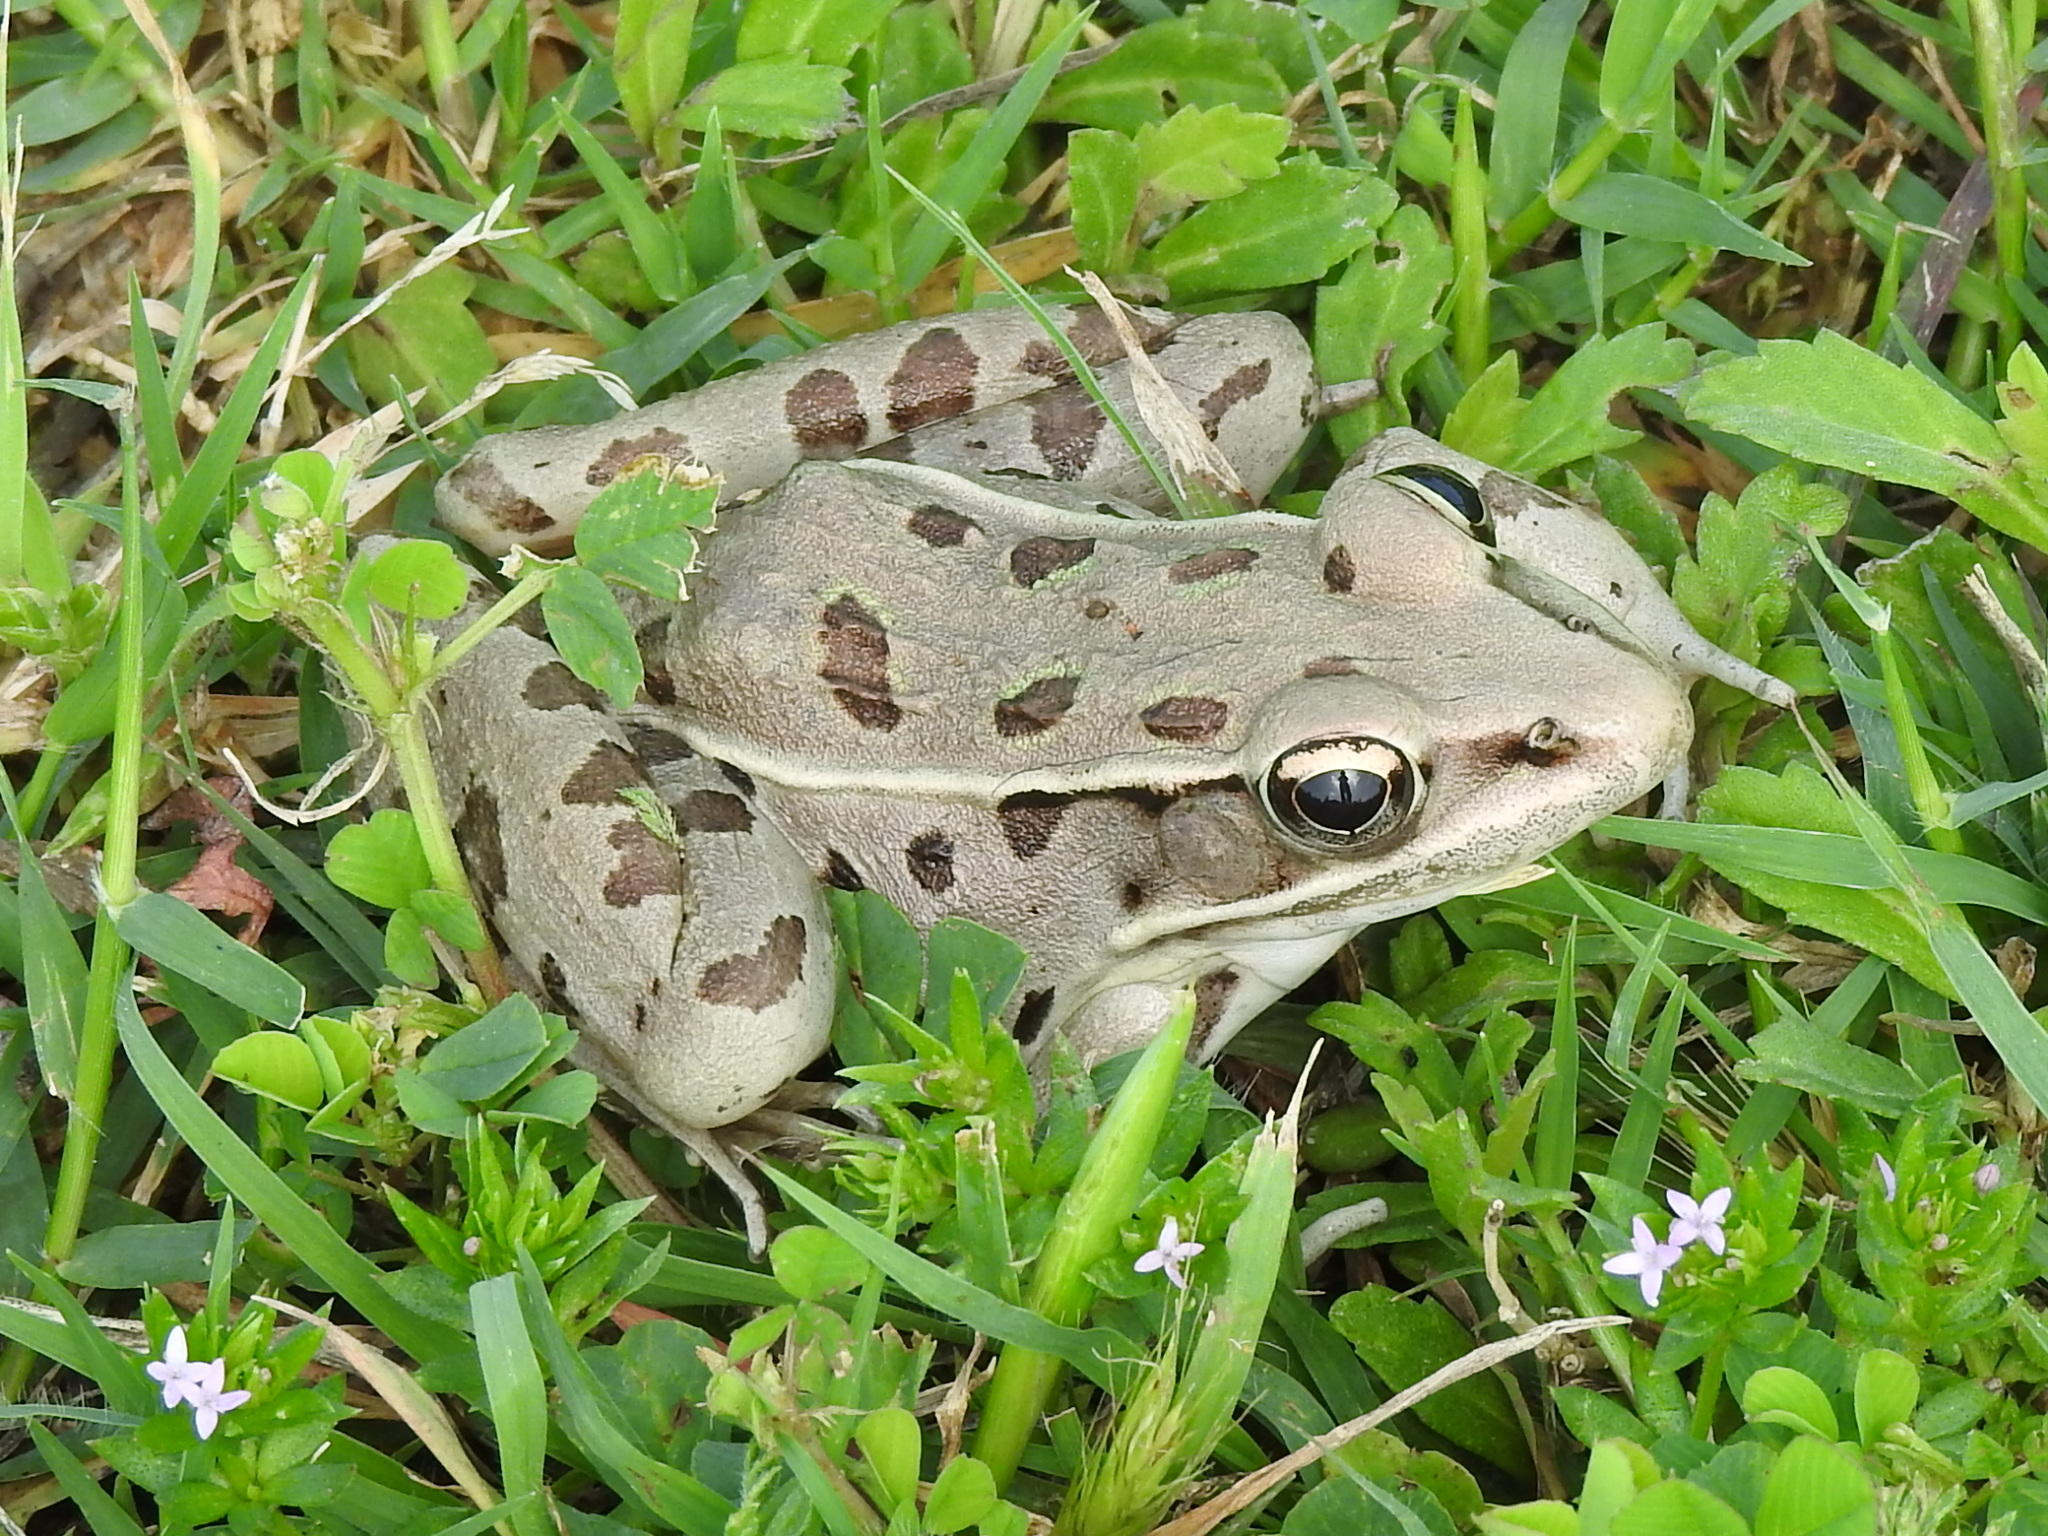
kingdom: Animalia
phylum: Chordata
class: Amphibia
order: Anura
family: Ranidae
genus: Lithobates
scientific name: Lithobates sphenocephalus
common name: Southern leopard frog
